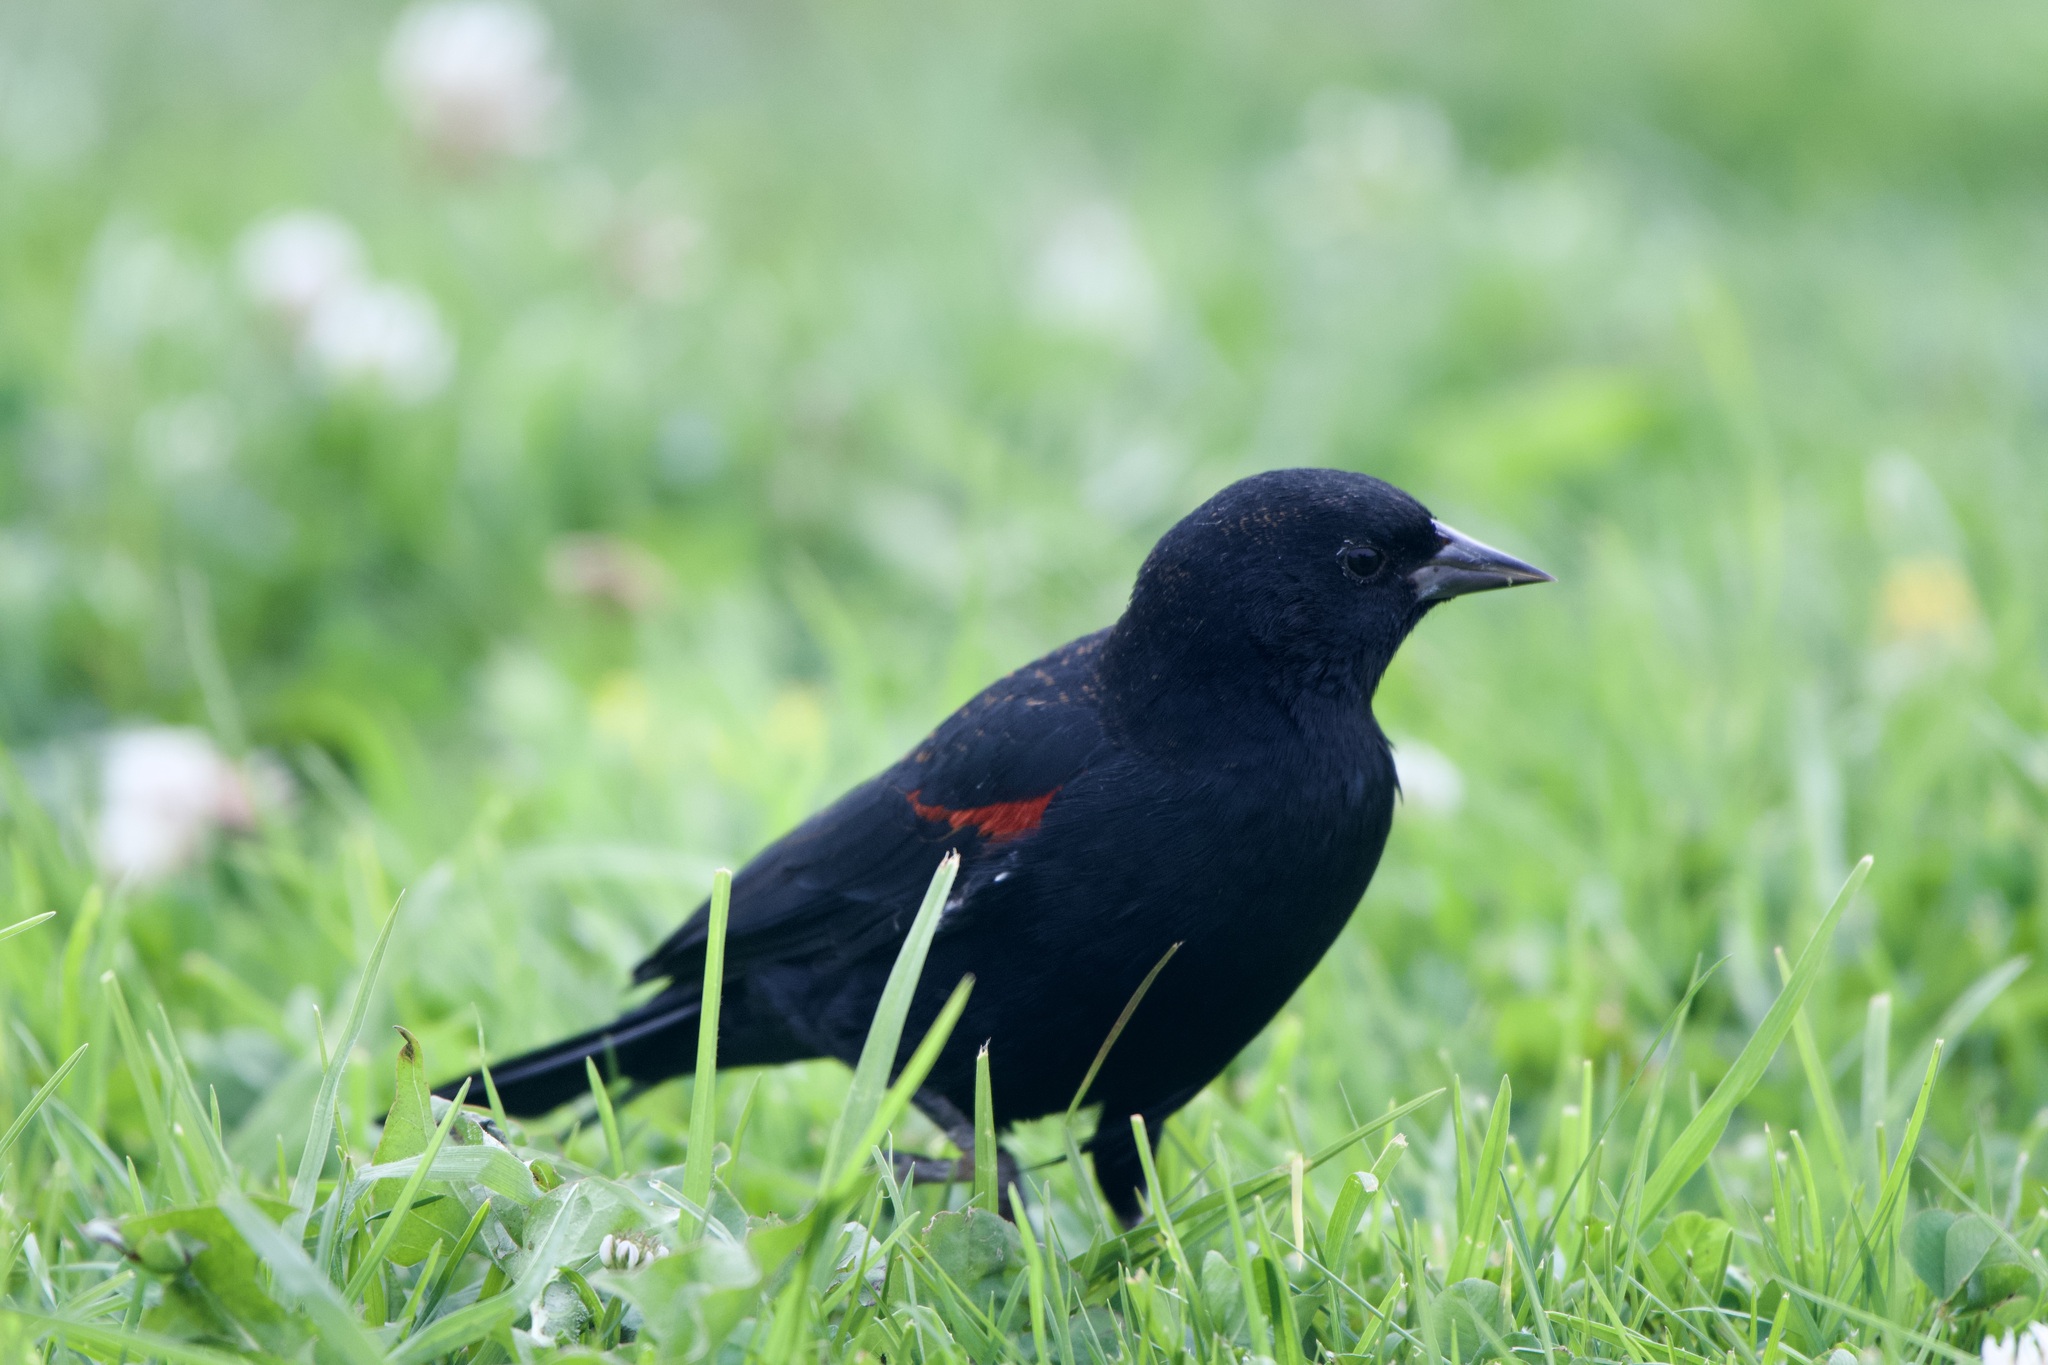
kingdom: Animalia
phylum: Chordata
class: Aves
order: Passeriformes
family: Icteridae
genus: Agelaius
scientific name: Agelaius phoeniceus
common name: Red-winged blackbird
